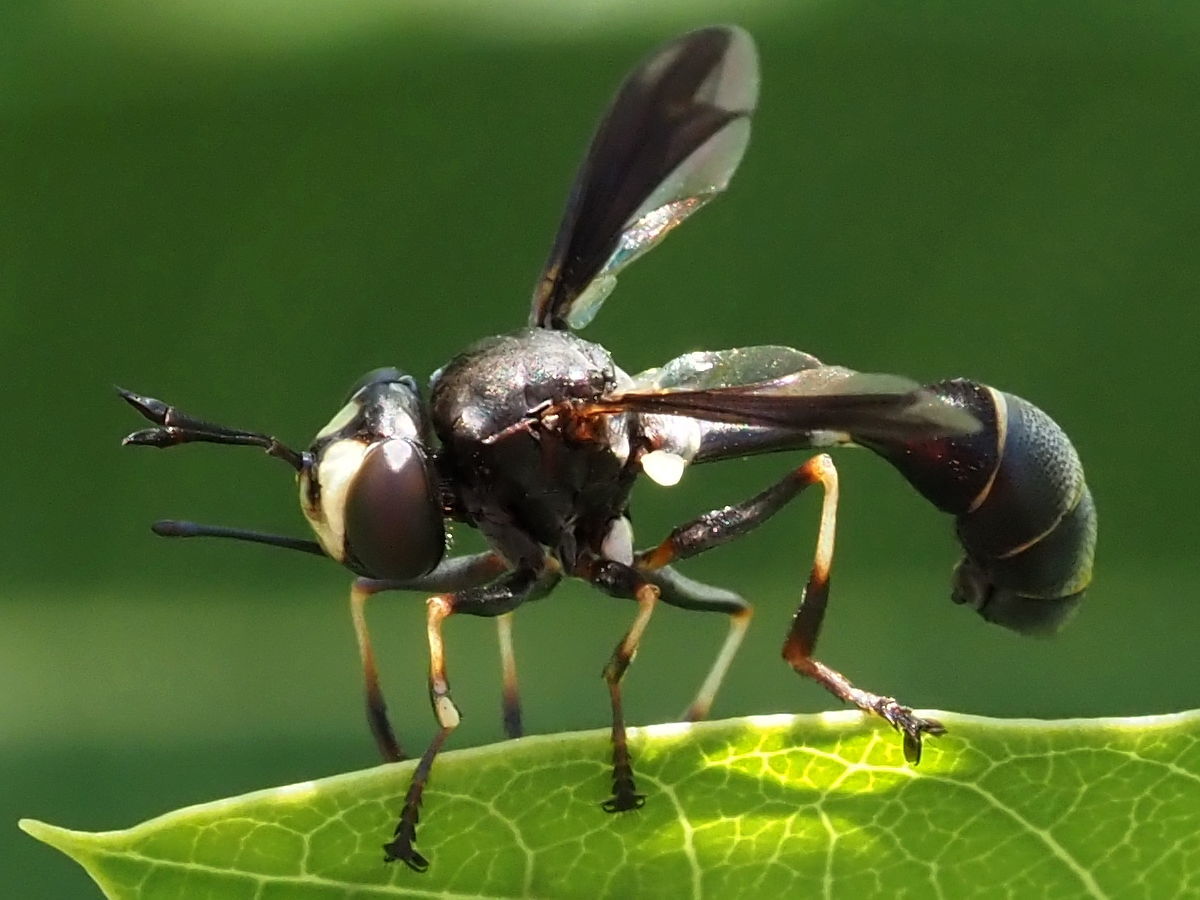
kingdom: Animalia
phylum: Arthropoda
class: Insecta
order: Diptera
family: Conopidae
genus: Physocephala
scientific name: Physocephala tibialis
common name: Common eastern physocephala
